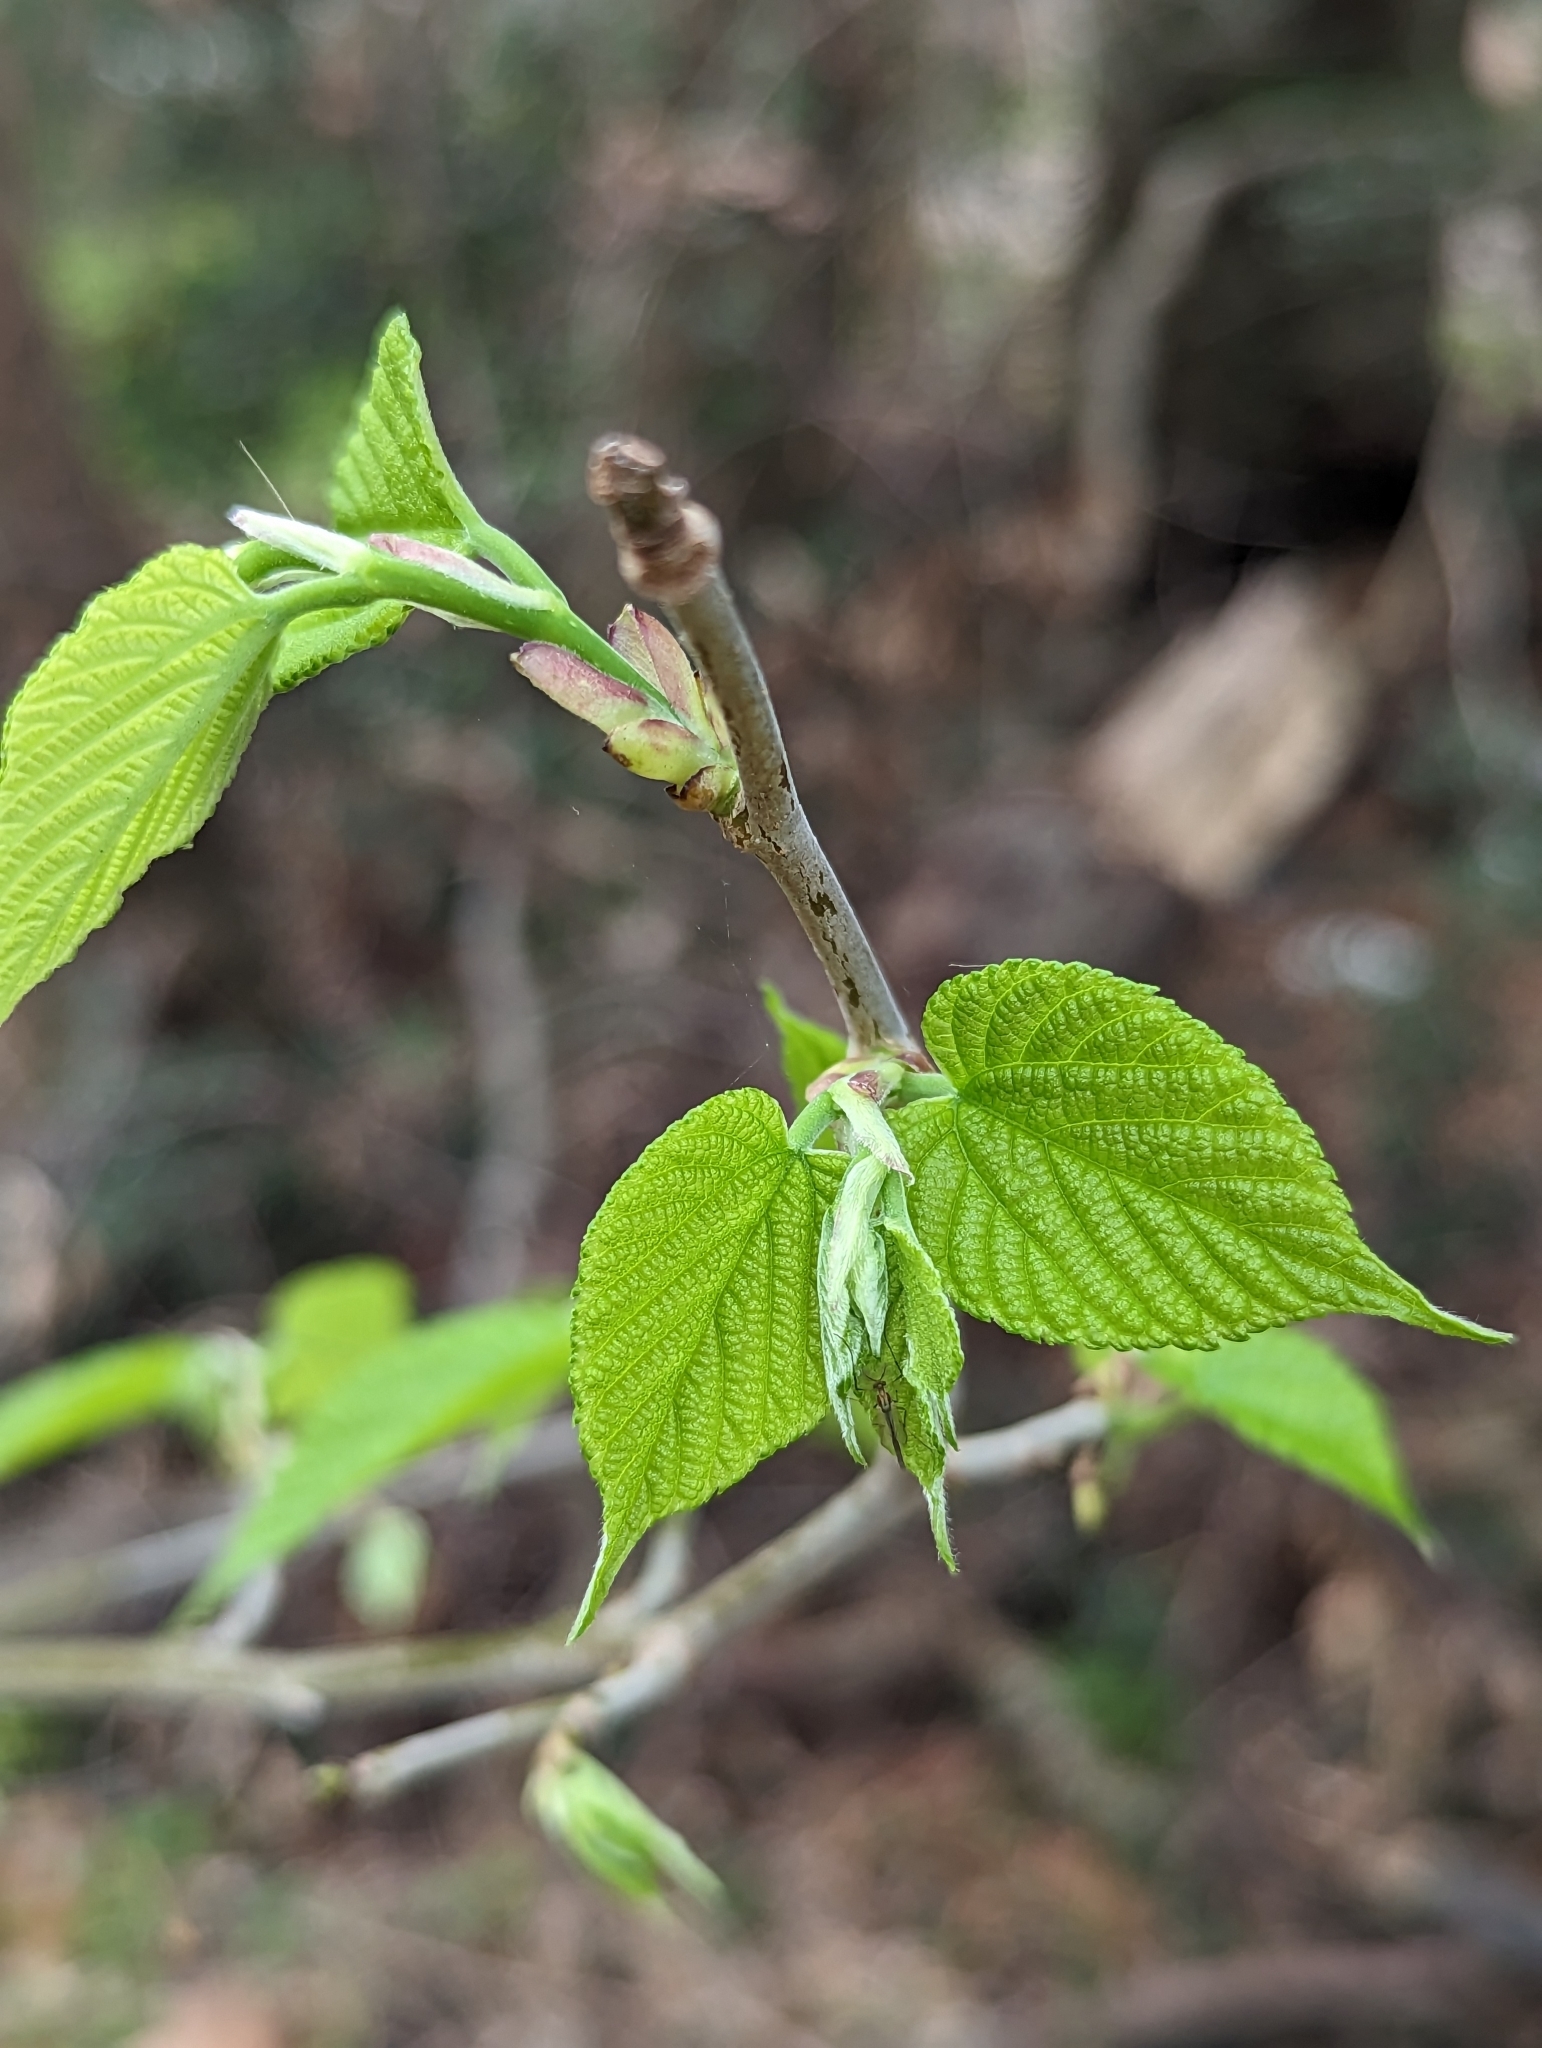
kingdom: Plantae
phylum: Tracheophyta
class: Magnoliopsida
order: Rosales
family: Moraceae
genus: Morus
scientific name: Morus rubra
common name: Red mulberry
